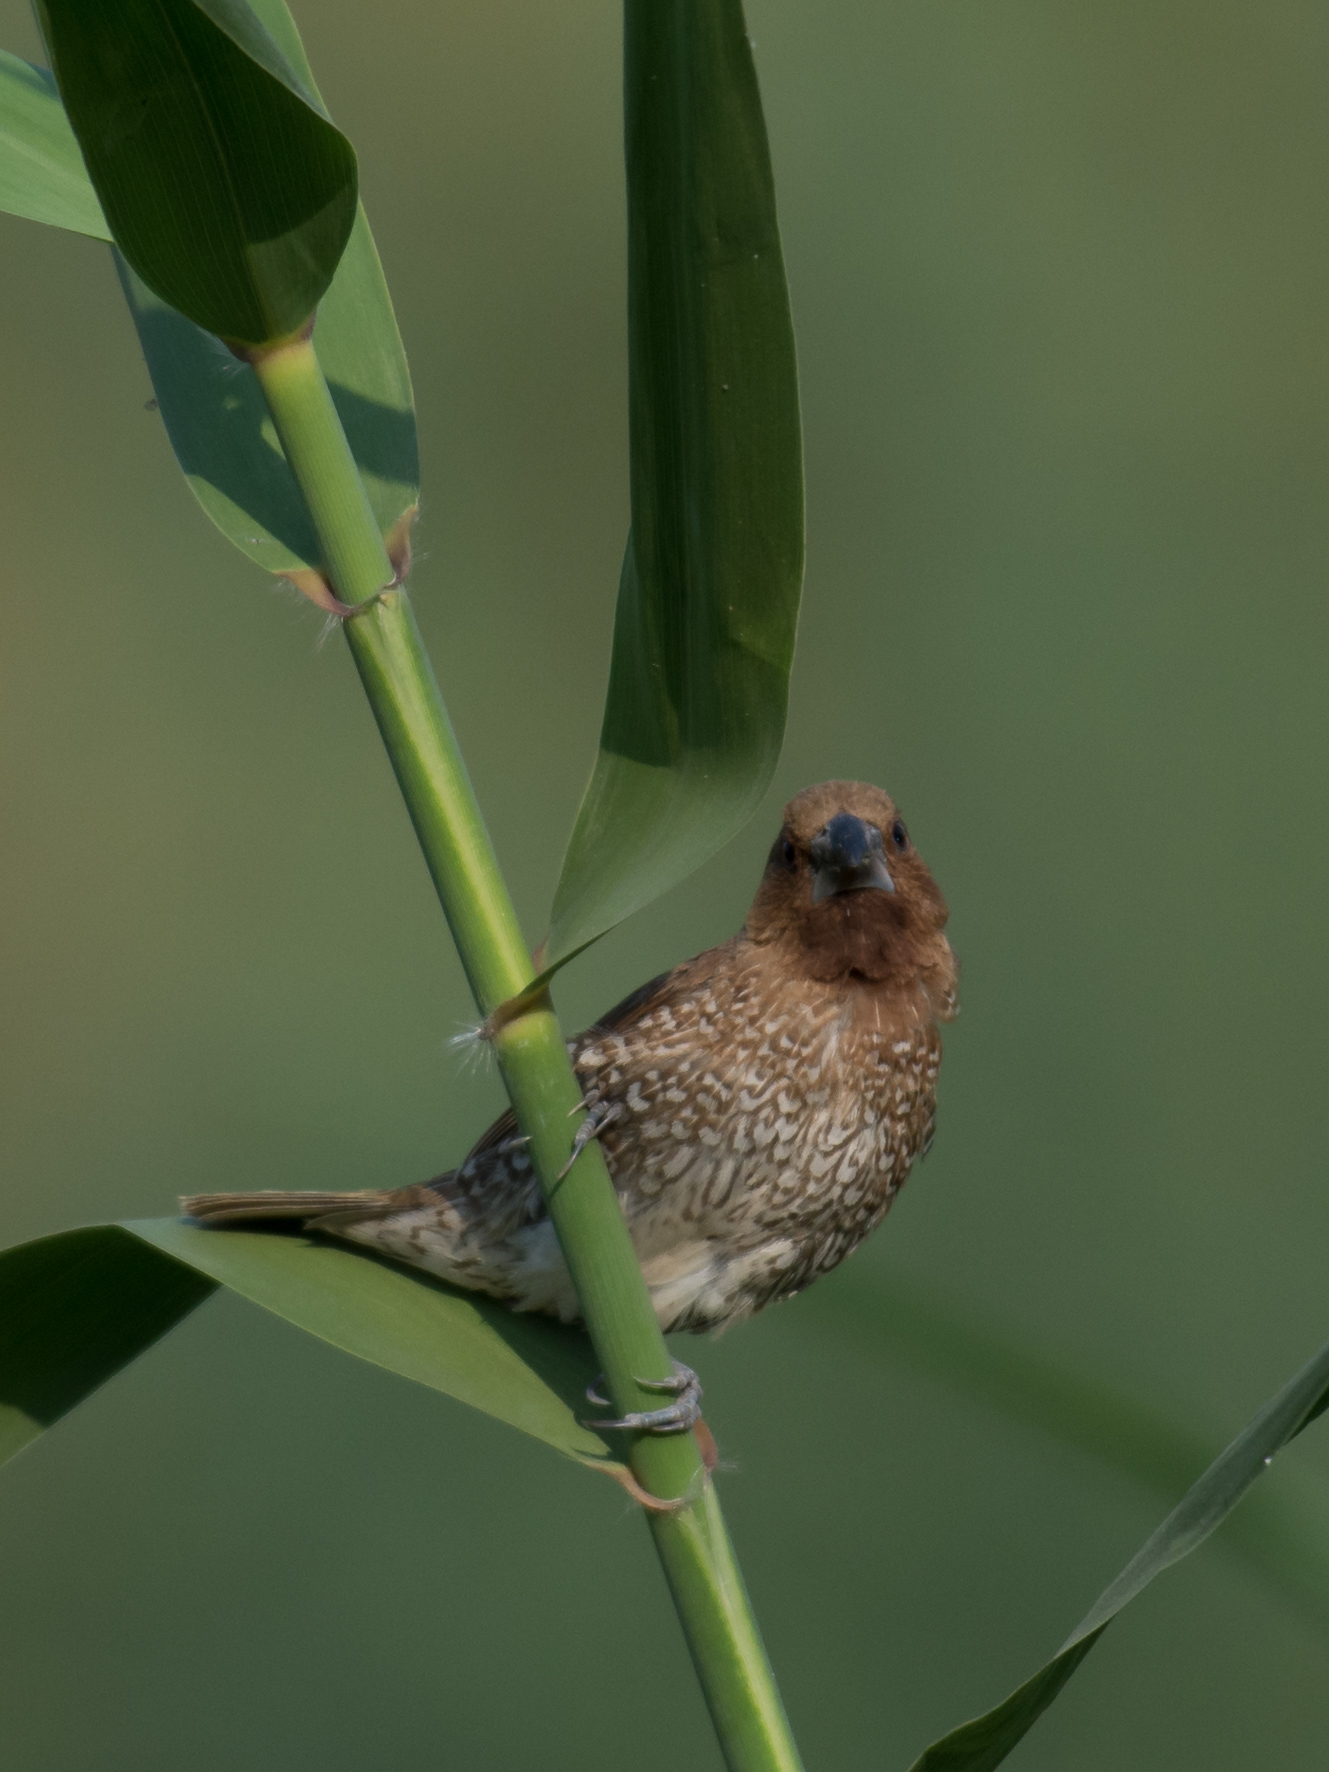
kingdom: Animalia
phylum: Chordata
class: Aves
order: Passeriformes
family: Estrildidae
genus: Lonchura
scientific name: Lonchura punctulata
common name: Scaly-breasted munia
